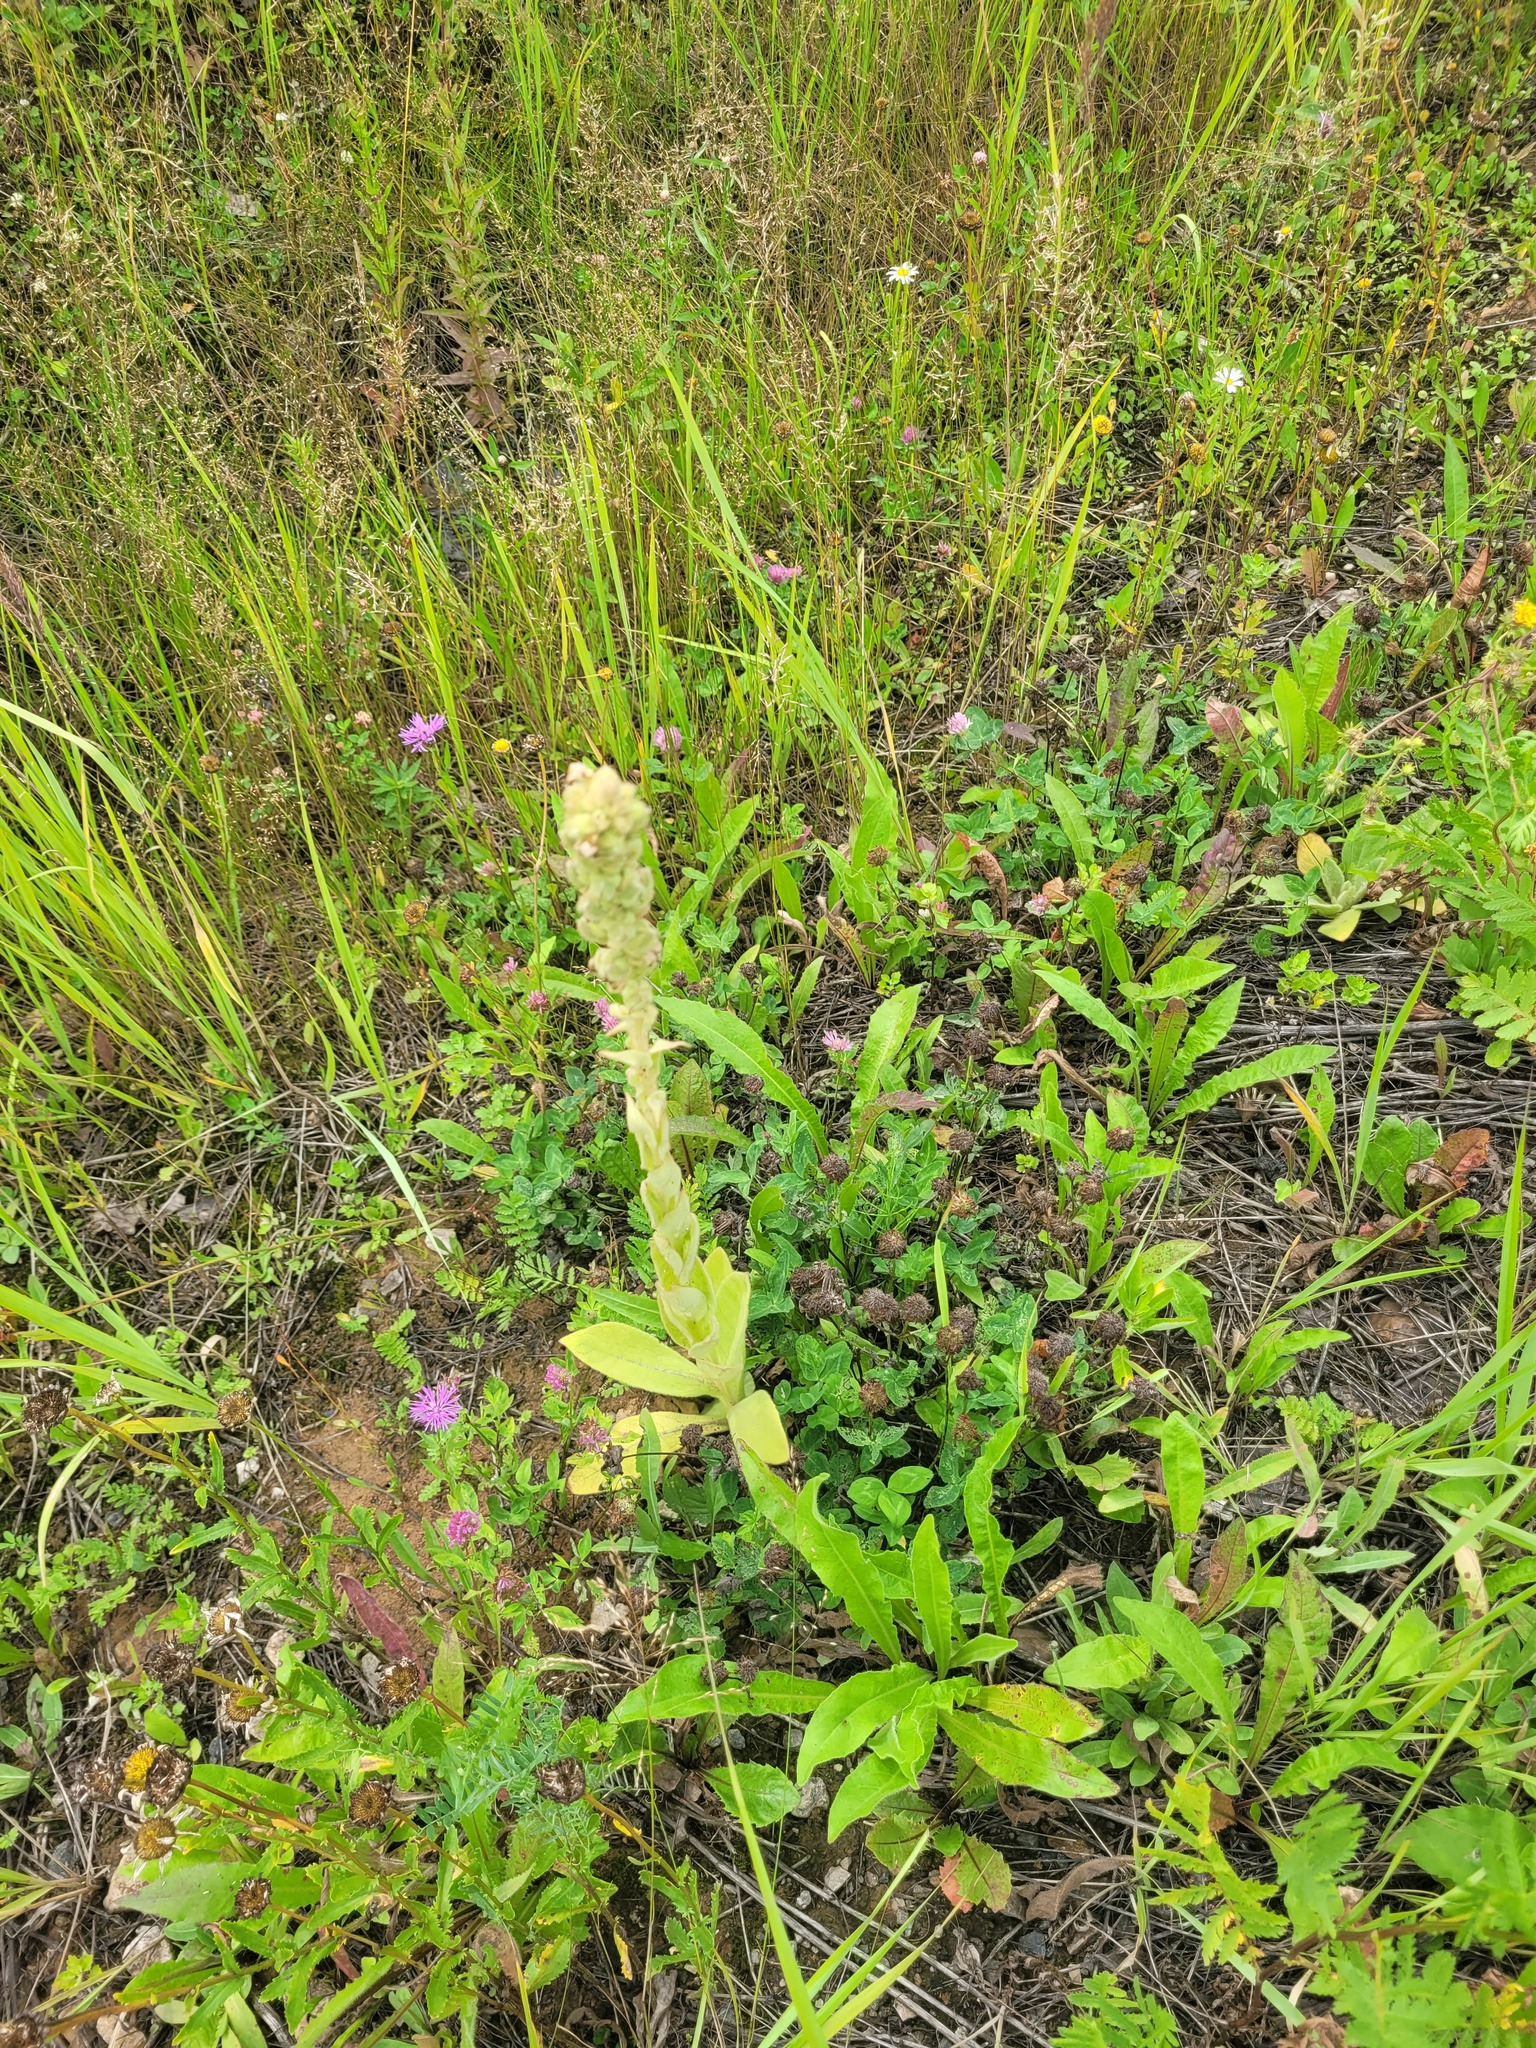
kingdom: Plantae
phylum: Tracheophyta
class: Magnoliopsida
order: Lamiales
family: Scrophulariaceae
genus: Verbascum
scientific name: Verbascum thapsus
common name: Common mullein
